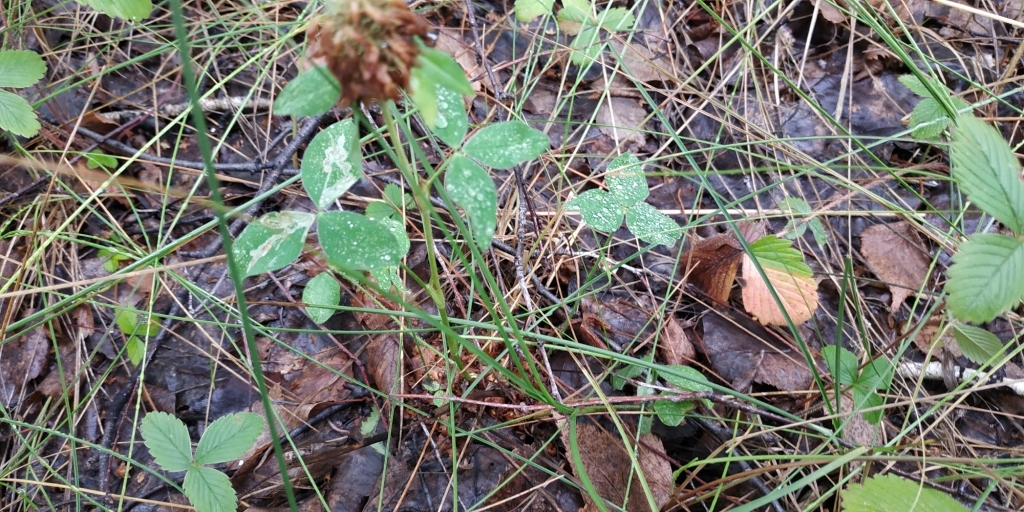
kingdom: Plantae
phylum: Tracheophyta
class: Magnoliopsida
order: Fabales
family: Fabaceae
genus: Trifolium
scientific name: Trifolium pratense
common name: Red clover
